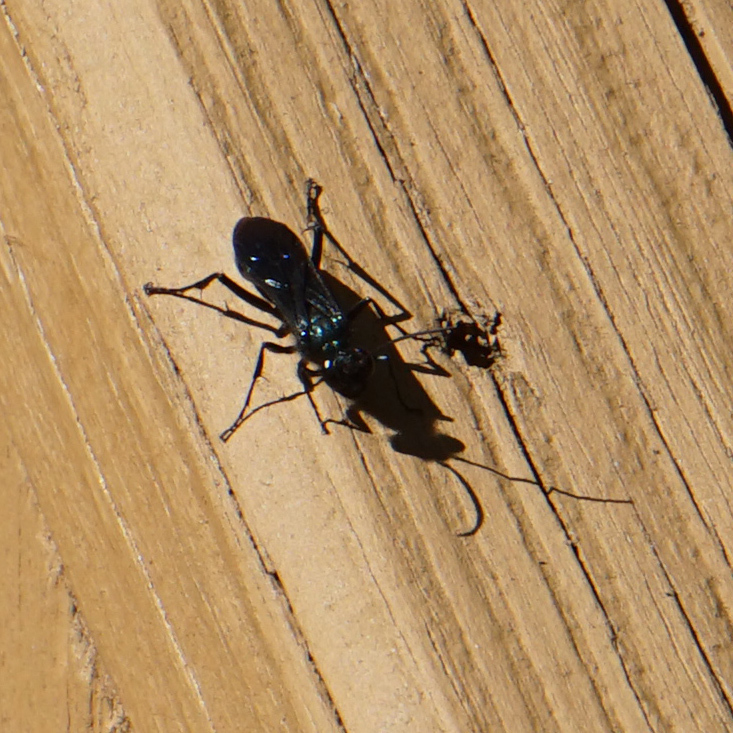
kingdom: Animalia
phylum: Arthropoda
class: Insecta
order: Hymenoptera
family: Sphecidae
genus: Chalybion
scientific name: Chalybion californicum
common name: Mud dauber
